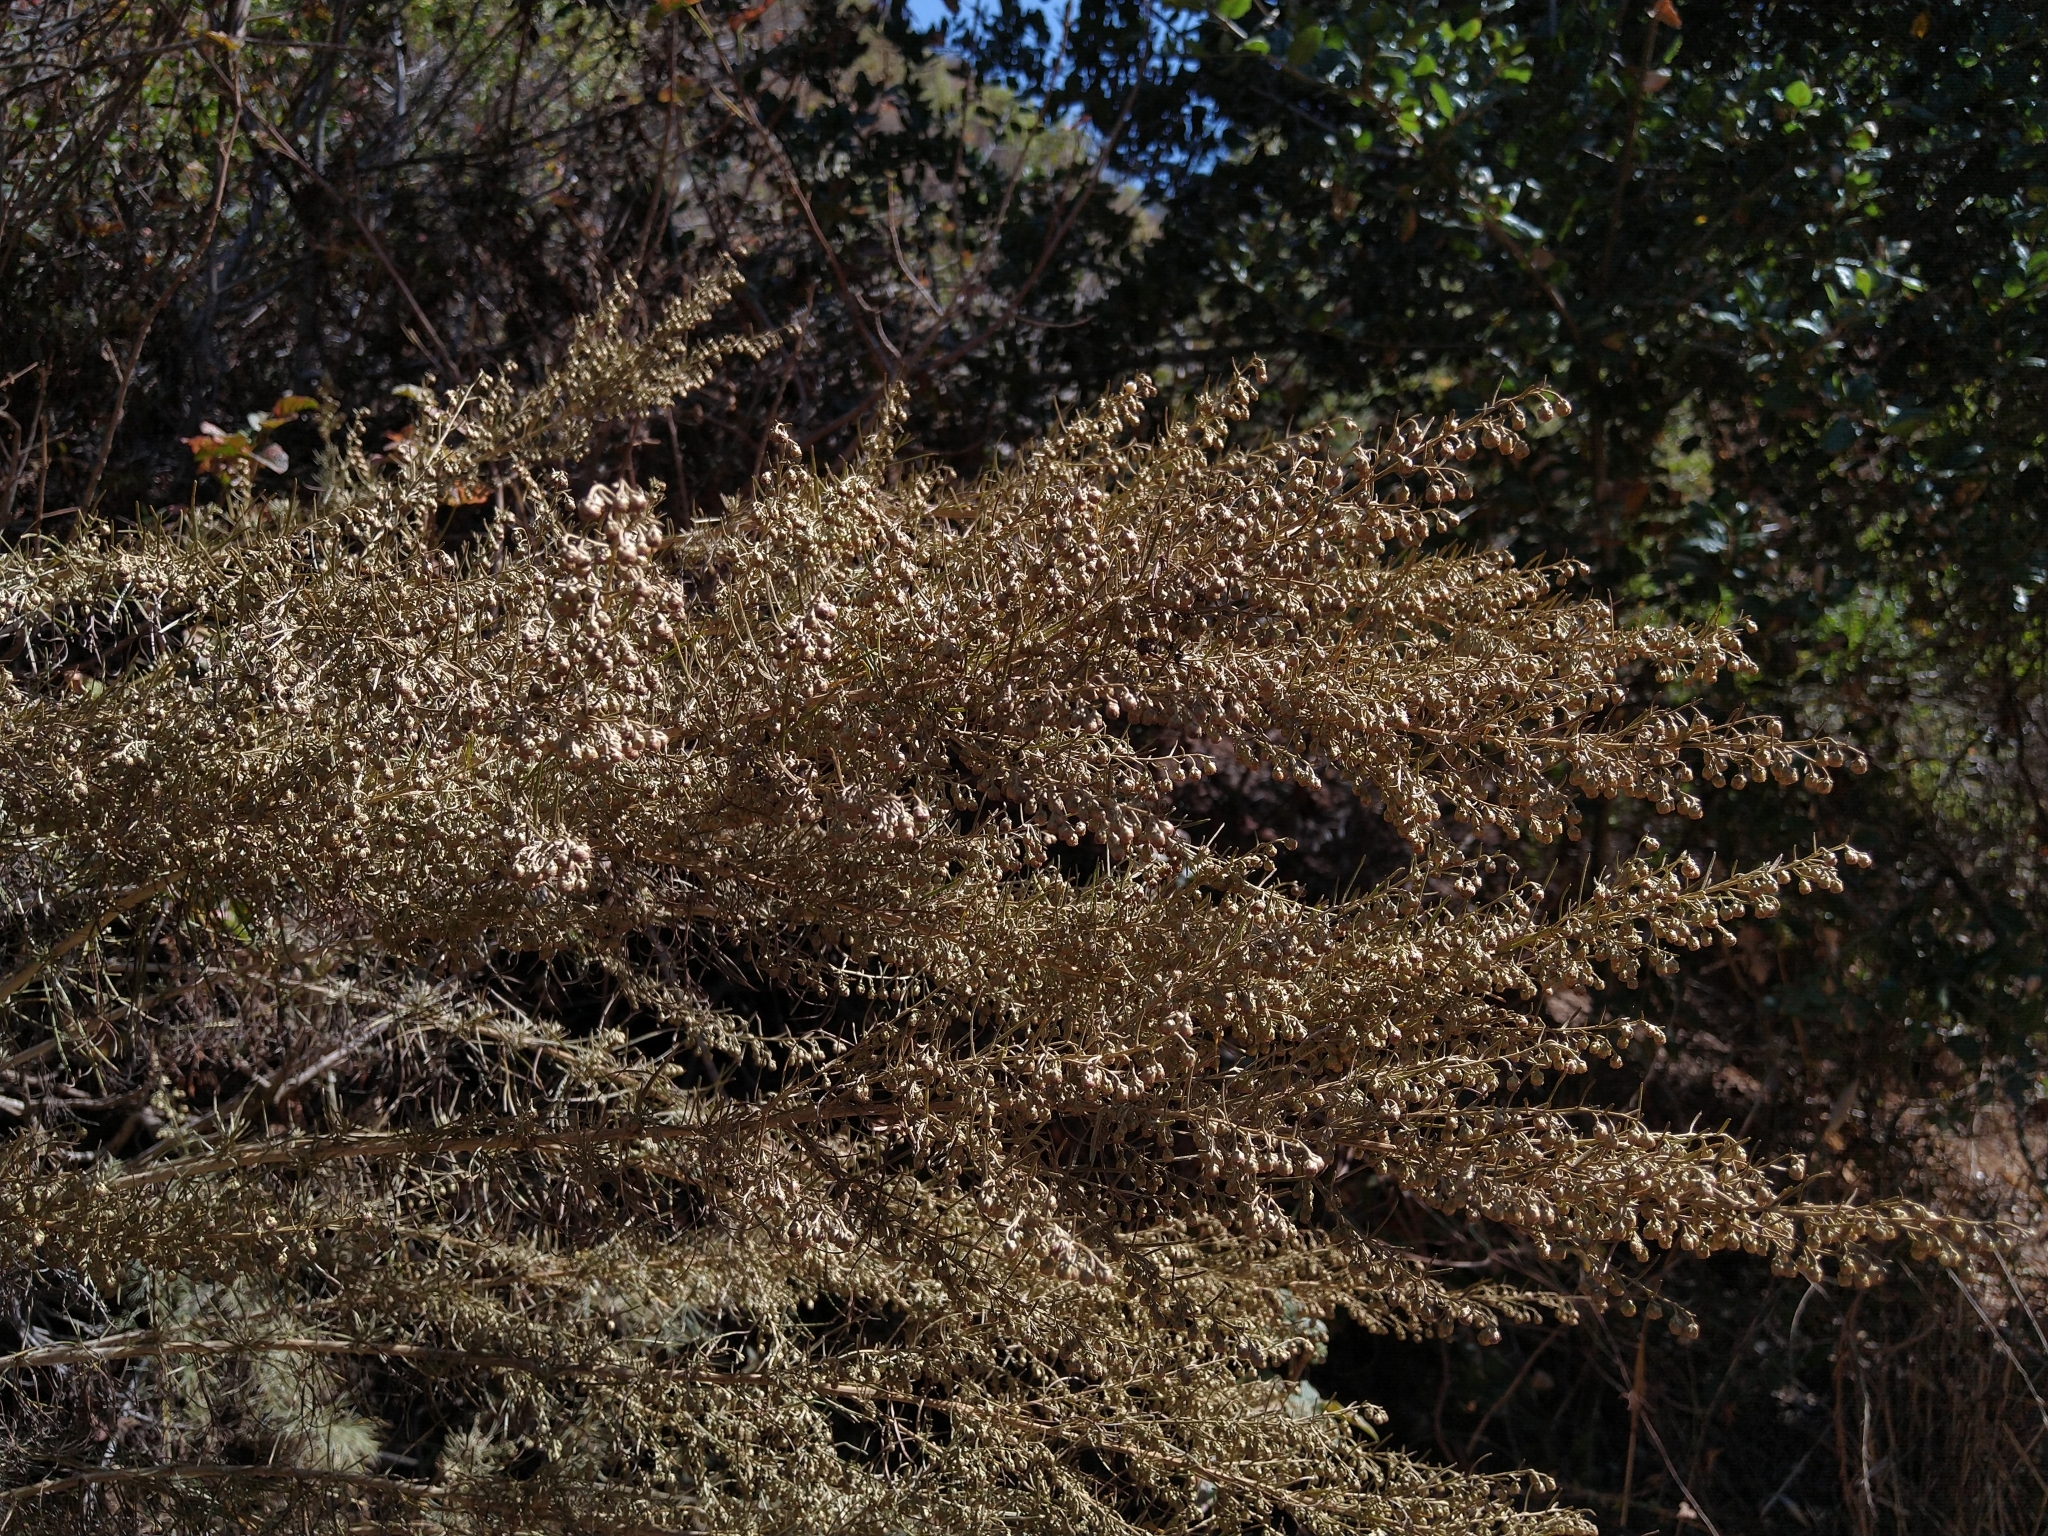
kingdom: Plantae
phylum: Tracheophyta
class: Magnoliopsida
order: Asterales
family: Asteraceae
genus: Artemisia
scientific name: Artemisia californica
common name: California sagebrush
